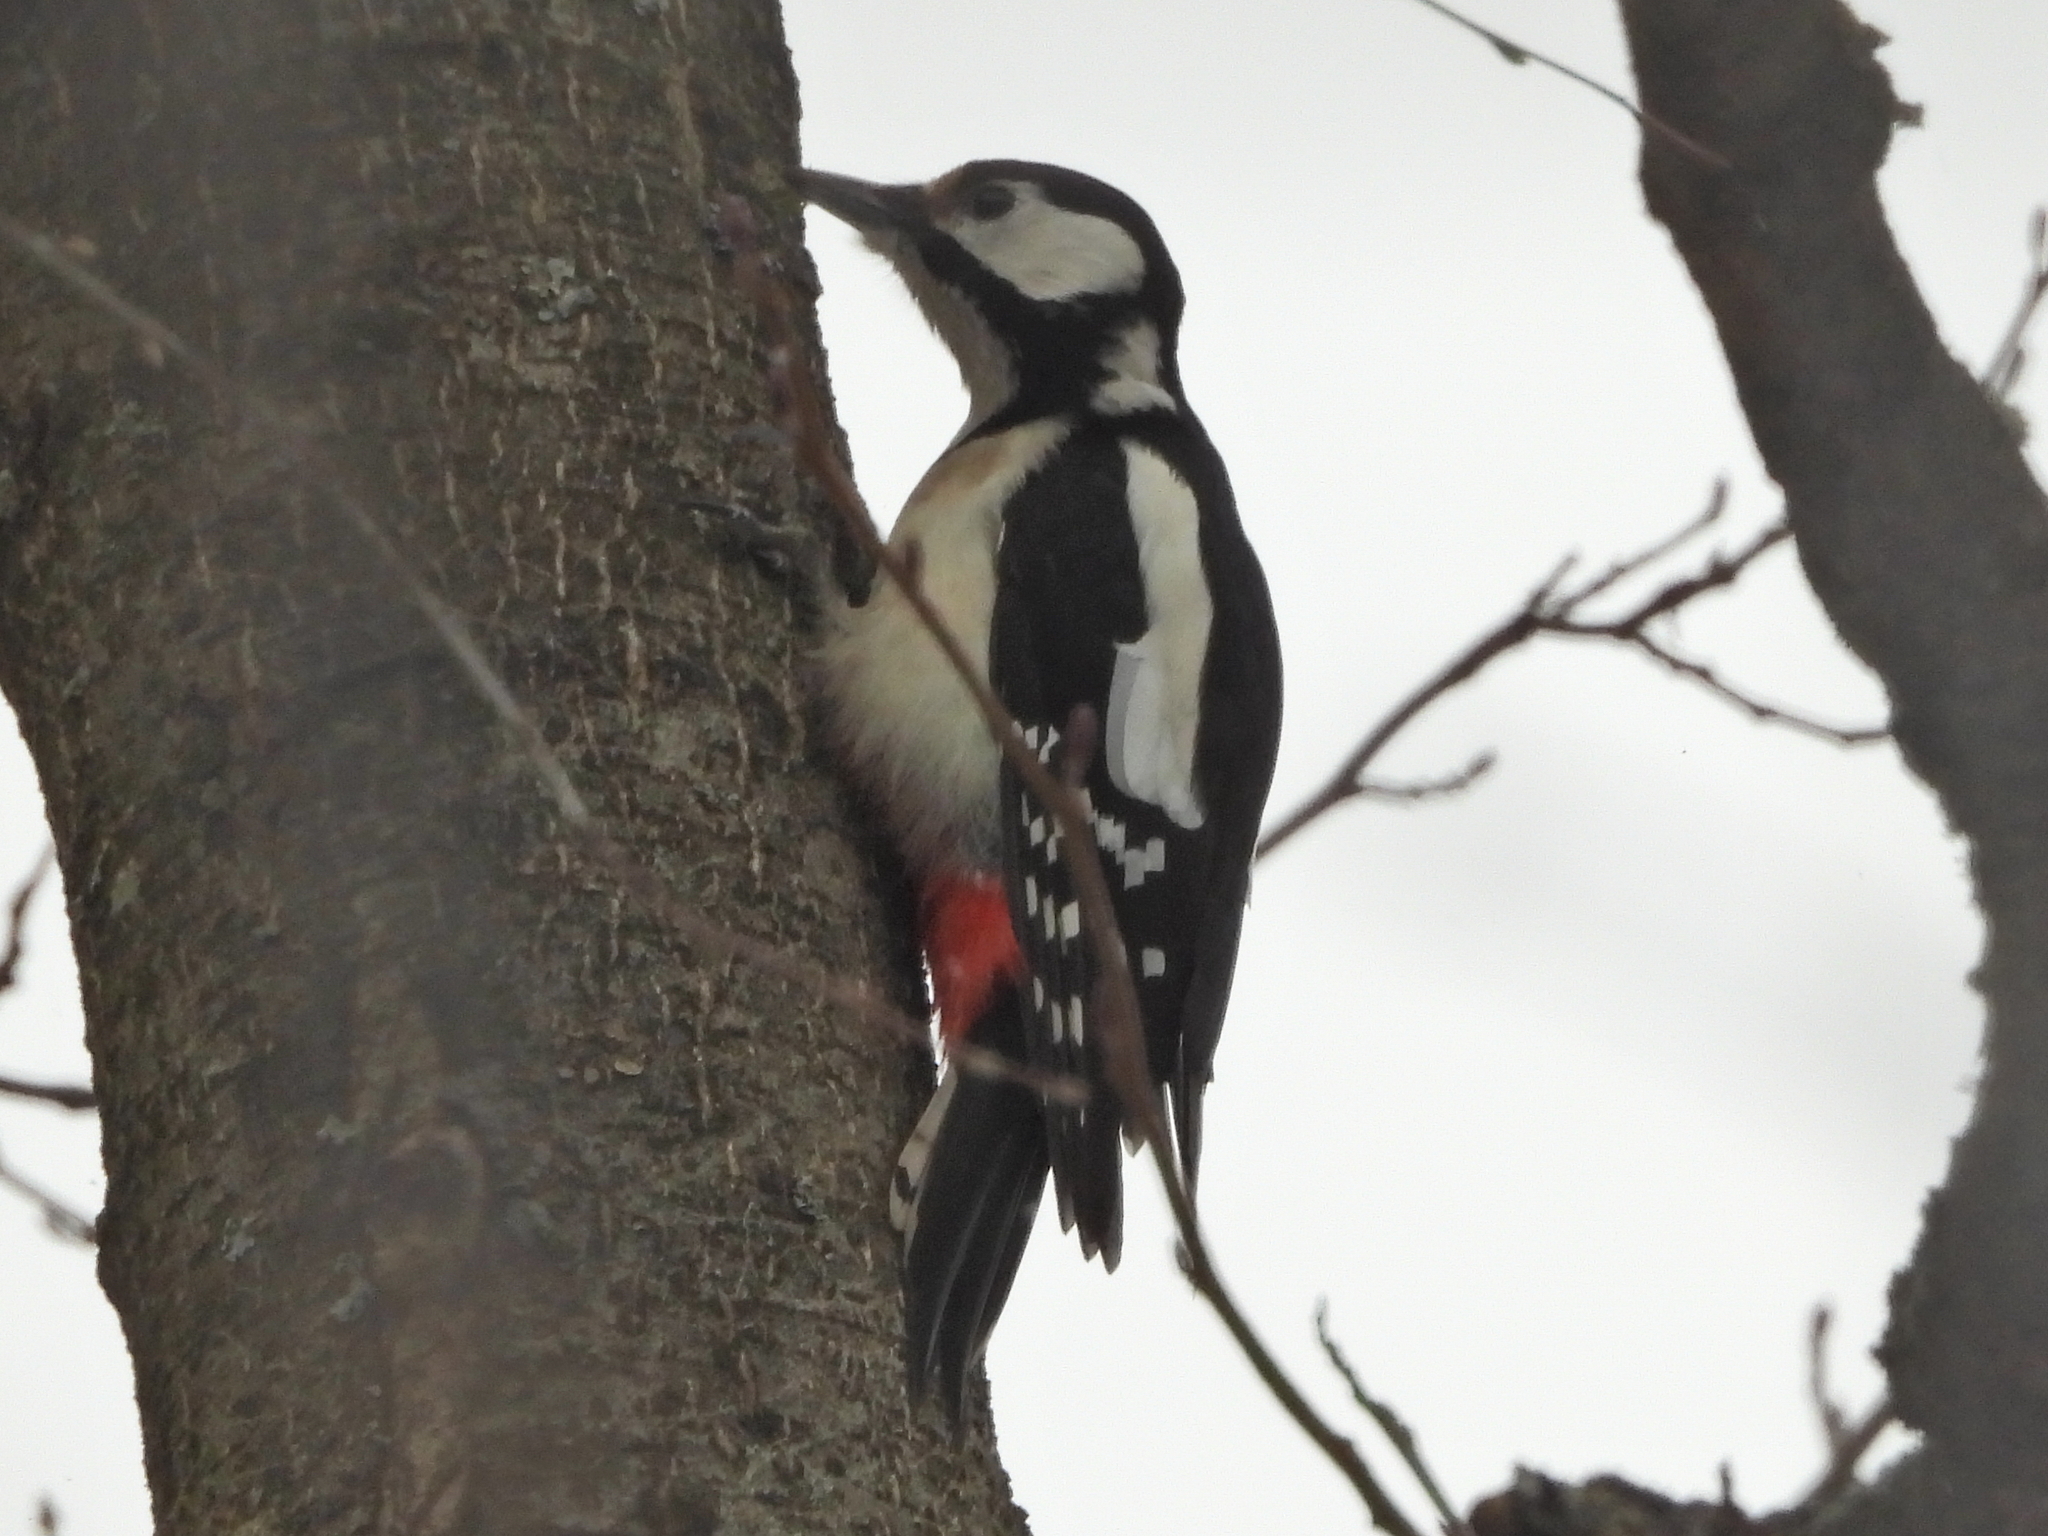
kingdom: Animalia
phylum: Chordata
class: Aves
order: Piciformes
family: Picidae
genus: Dendrocopos
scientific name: Dendrocopos major
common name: Great spotted woodpecker
